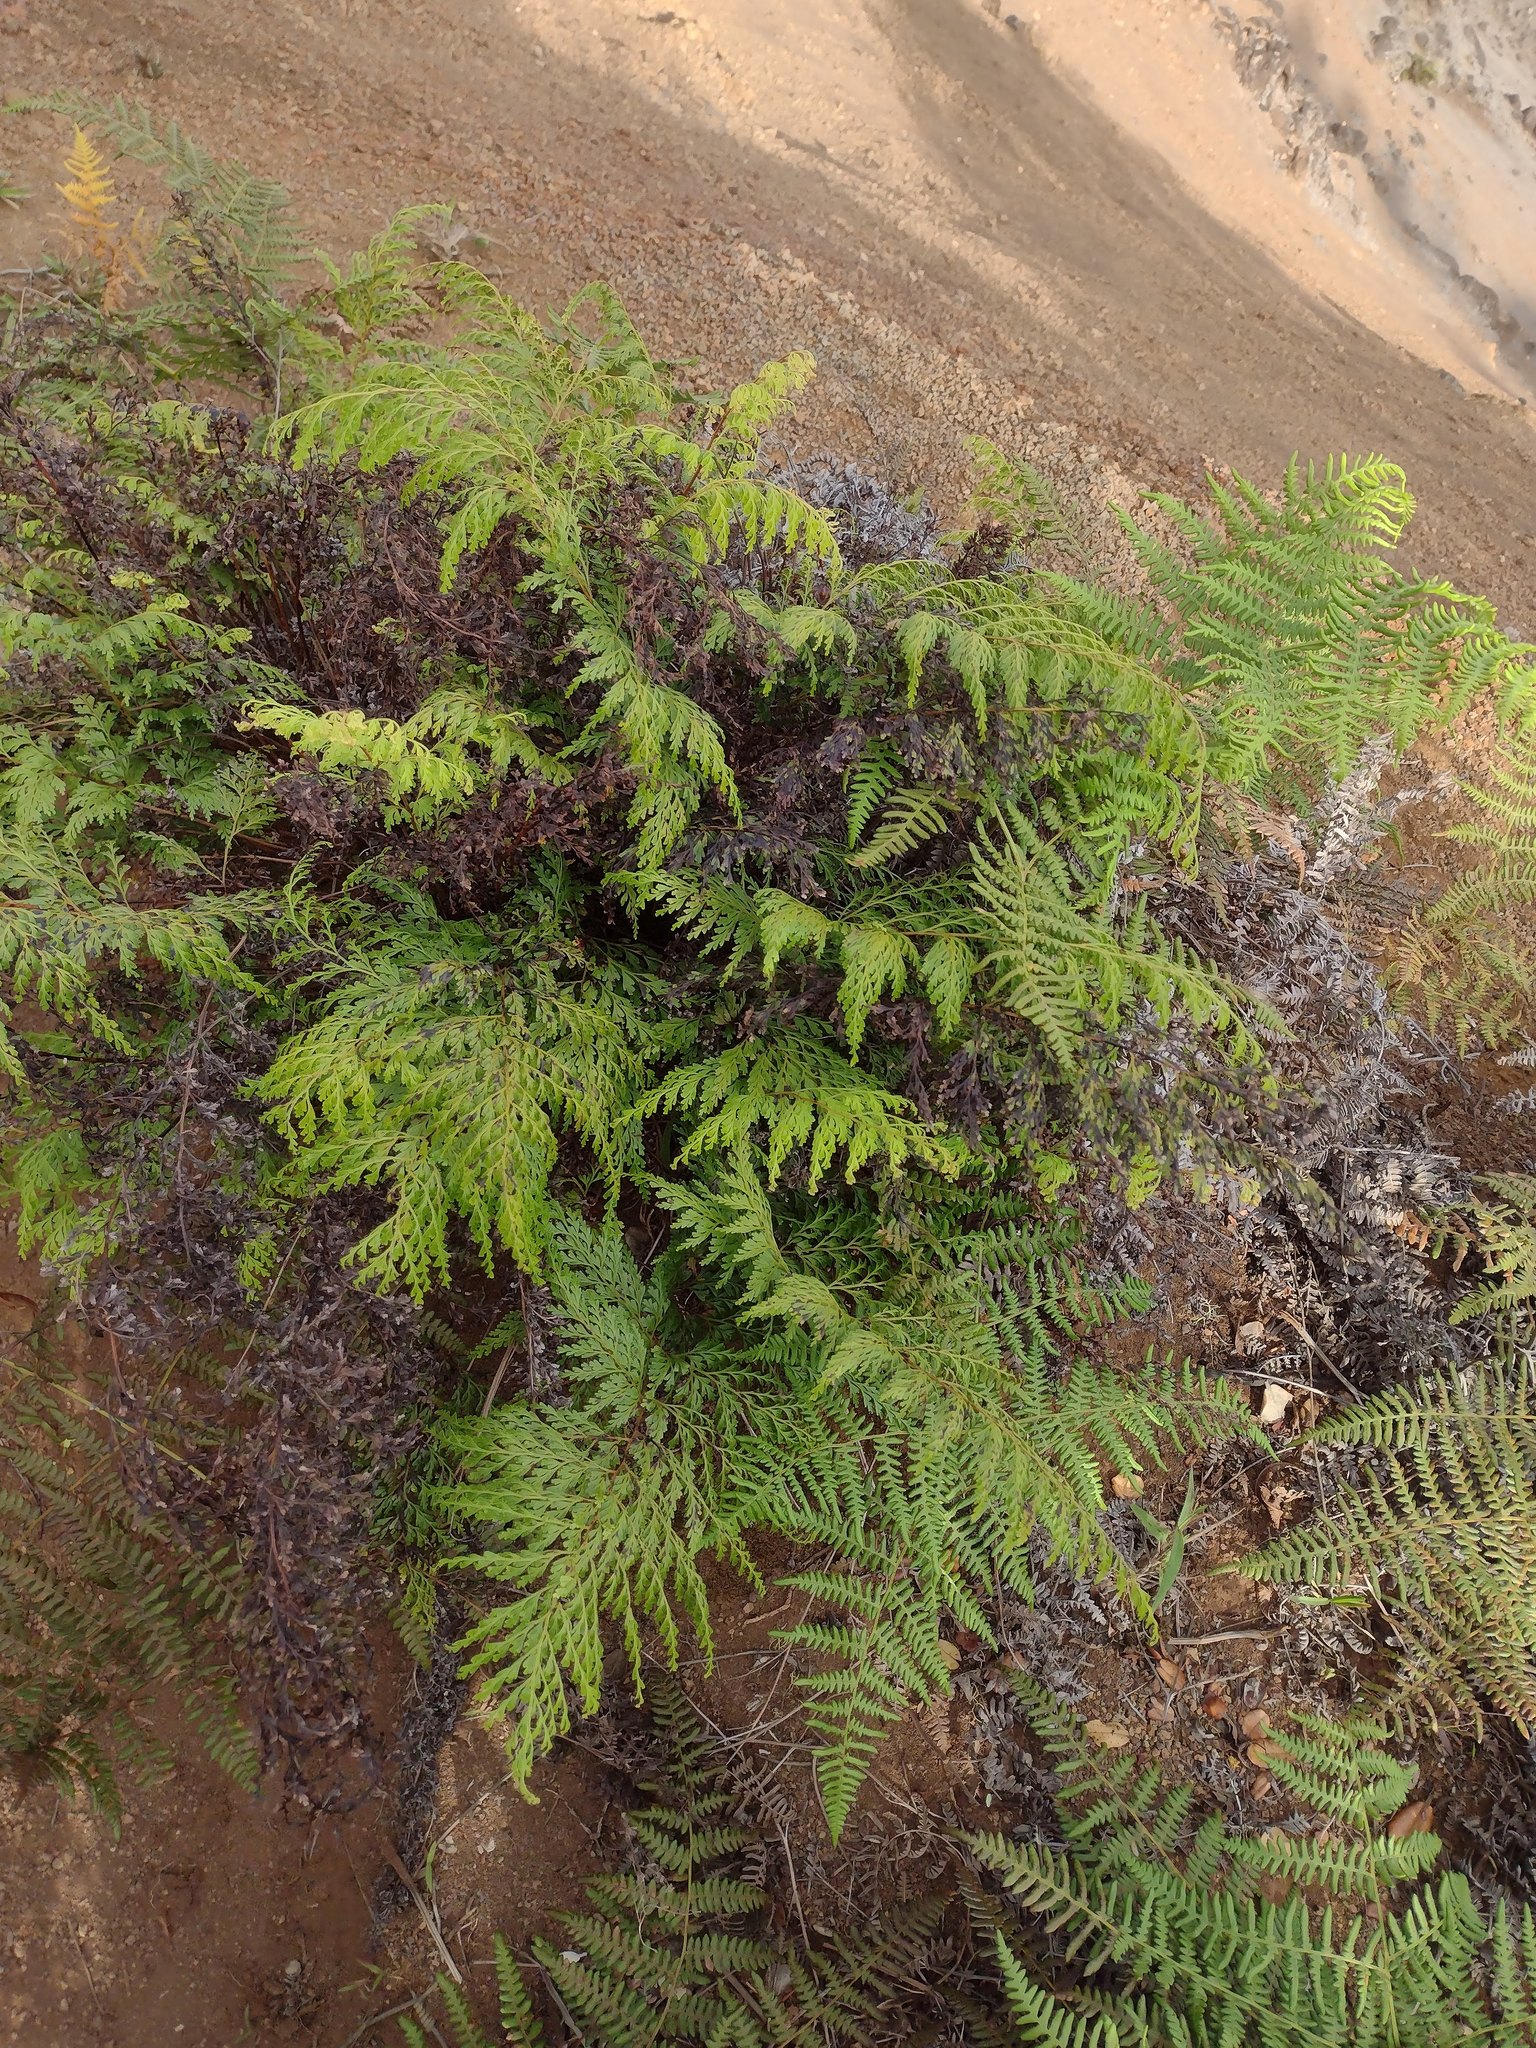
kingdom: Plantae
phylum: Tracheophyta
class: Polypodiopsida
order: Polypodiales
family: Lindsaeaceae
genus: Odontosoria
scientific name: Odontosoria chinensis
